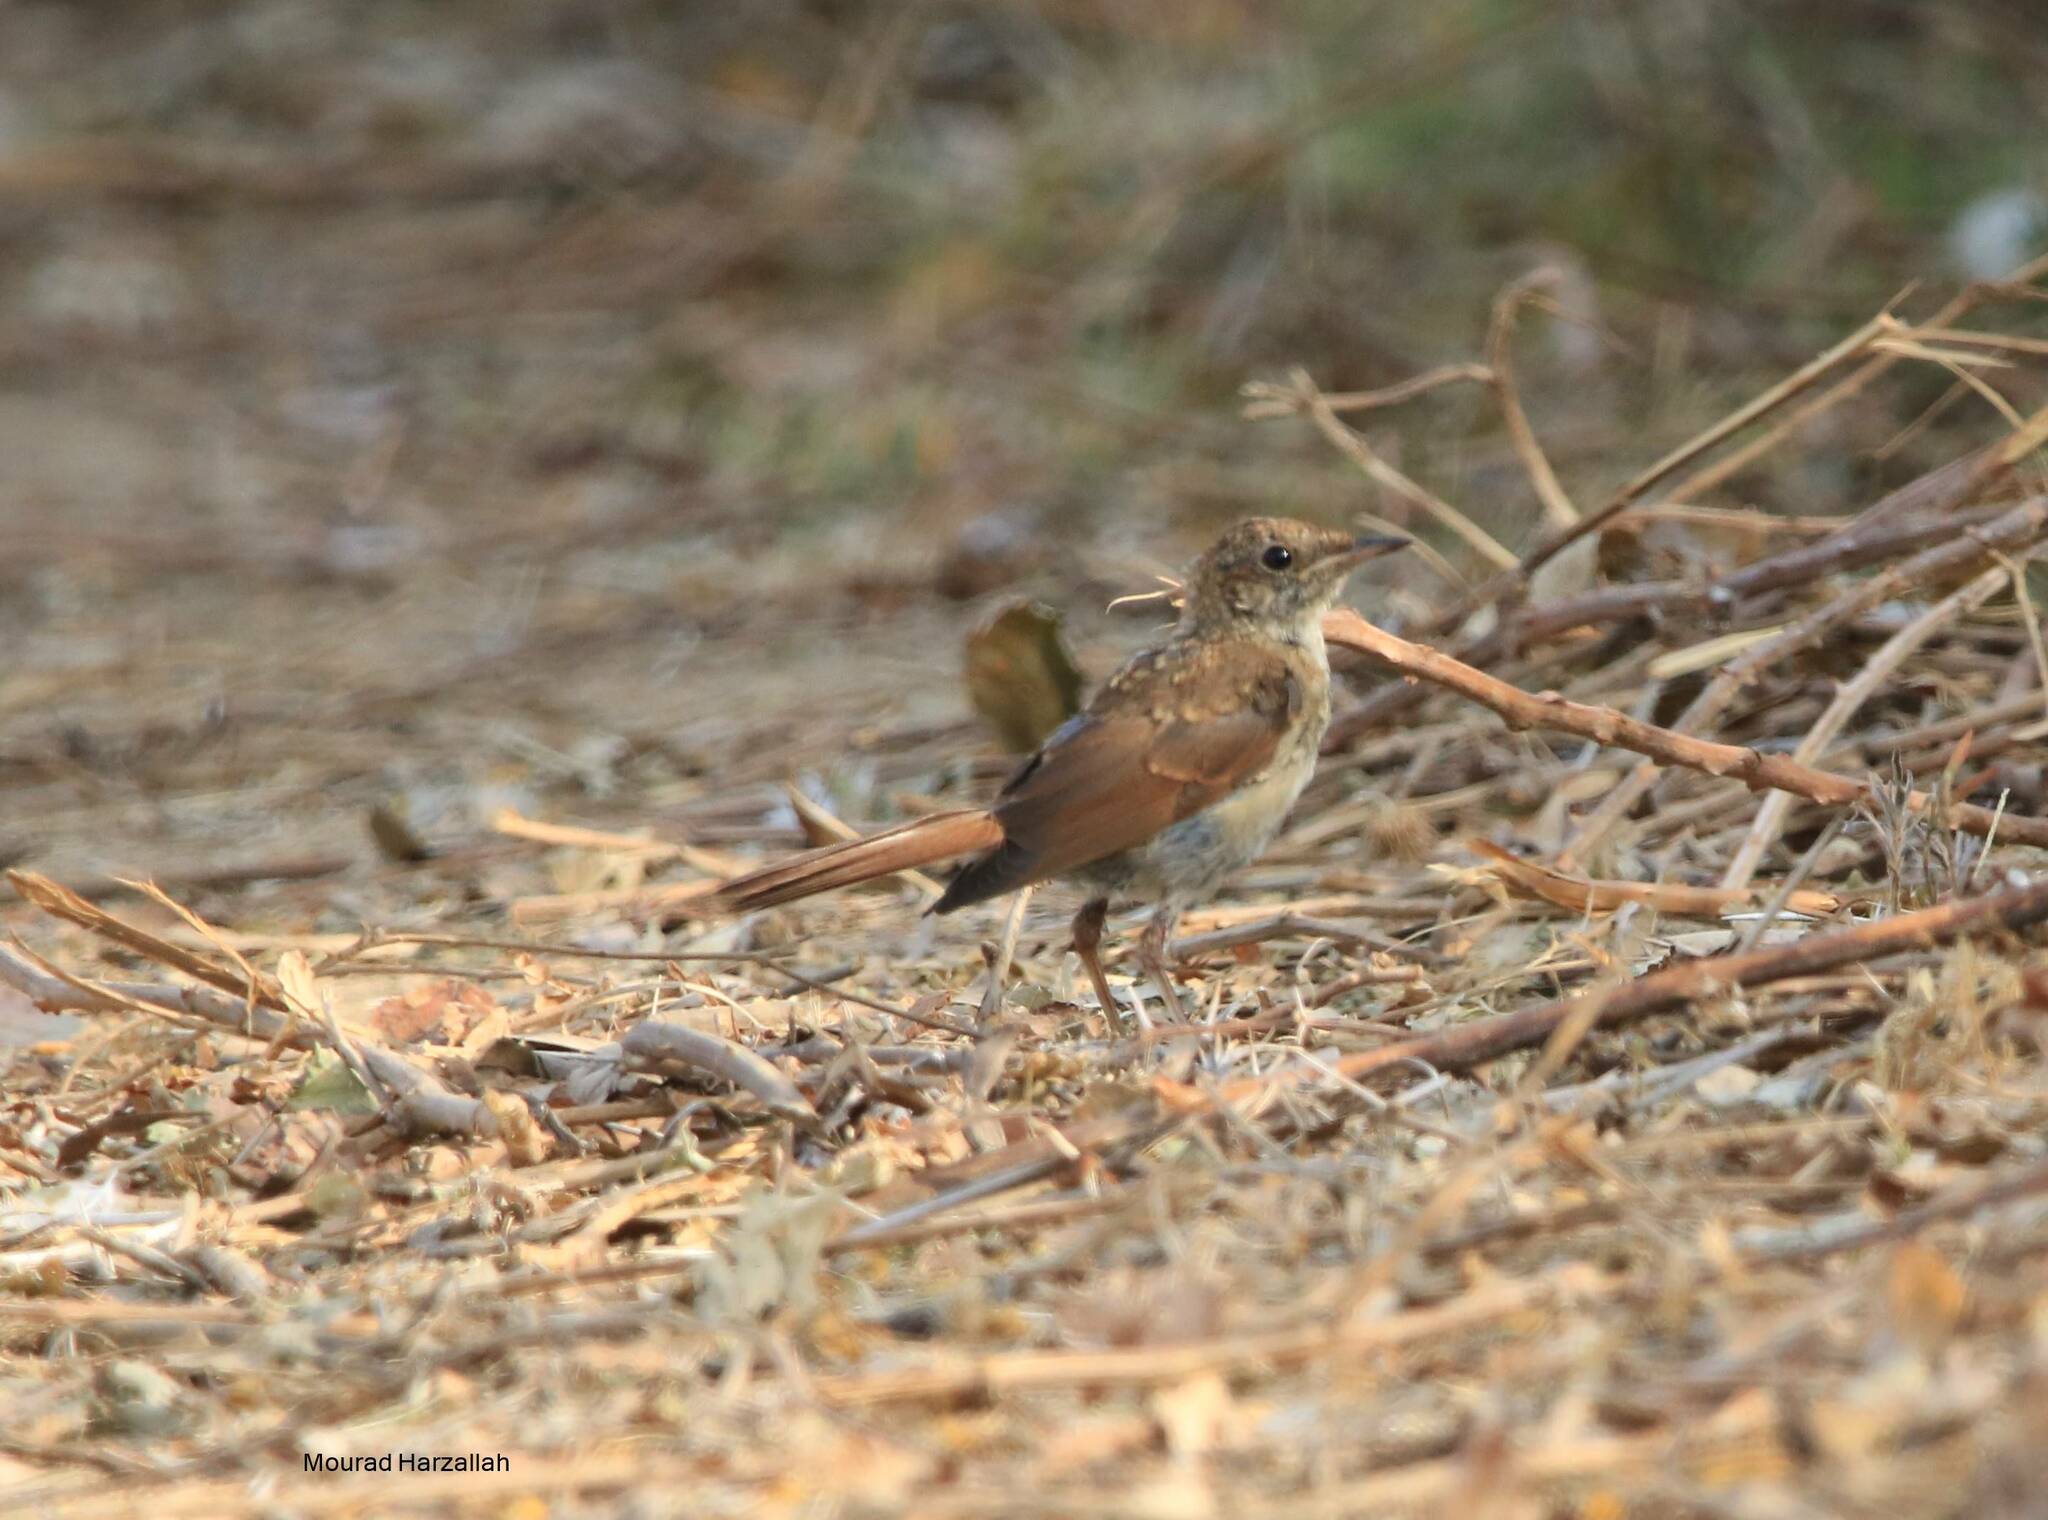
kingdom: Animalia
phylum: Chordata
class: Aves
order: Passeriformes
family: Muscicapidae
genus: Luscinia
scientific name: Luscinia megarhynchos
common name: Common nightingale
